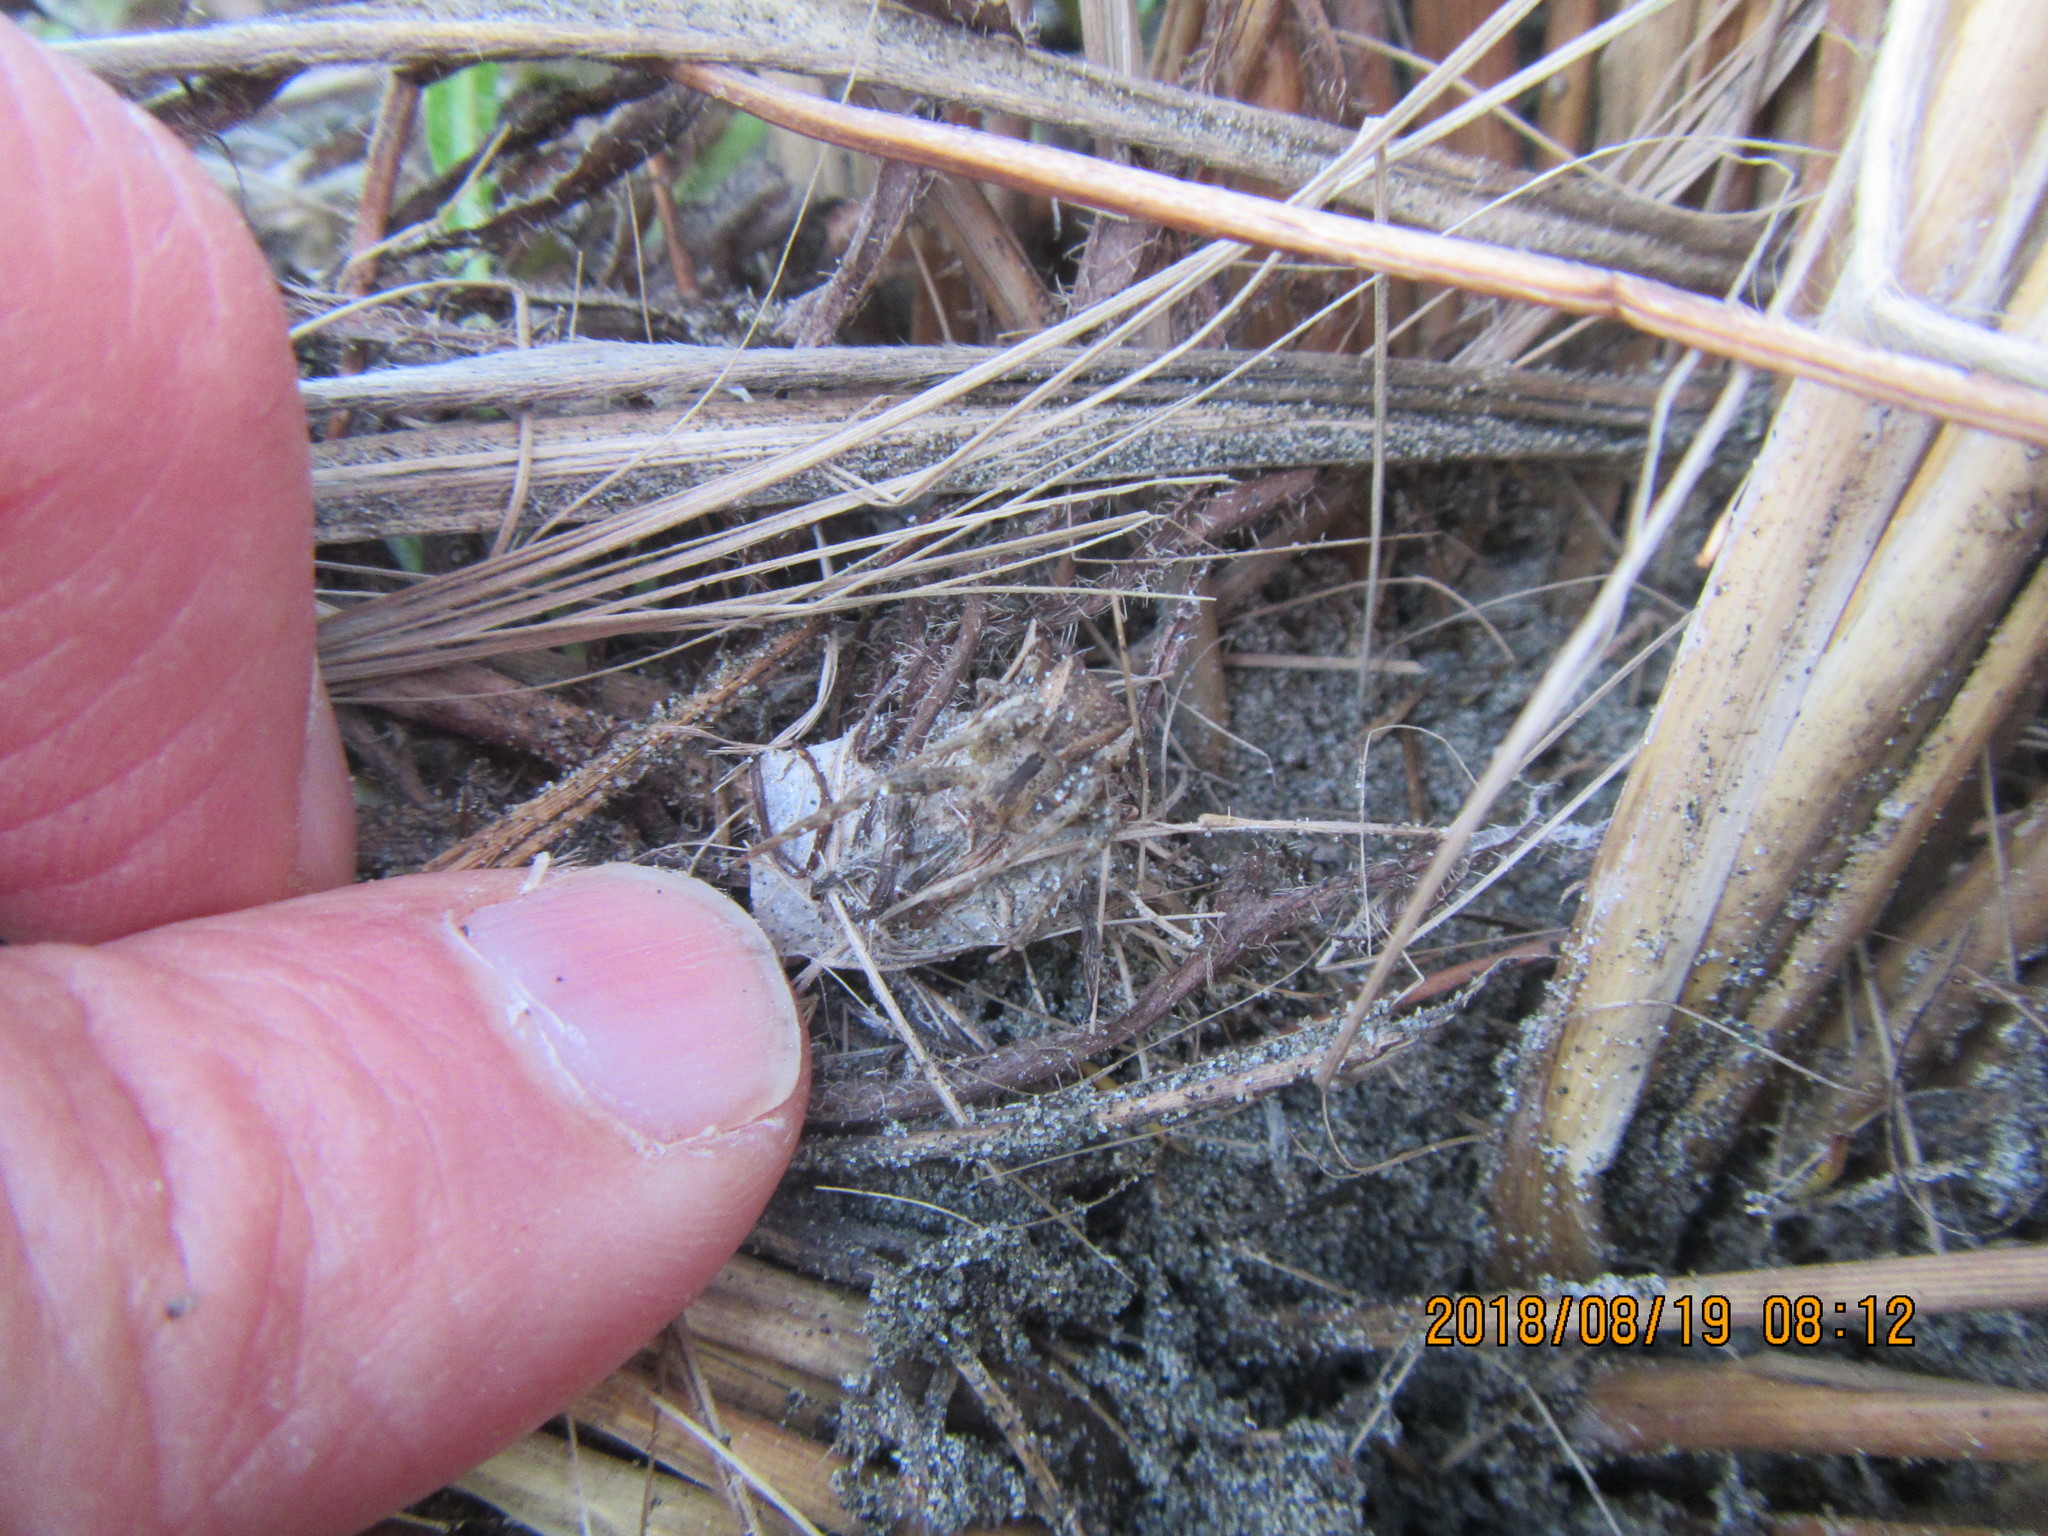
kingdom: Animalia
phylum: Arthropoda
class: Arachnida
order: Araneae
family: Thomisidae
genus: Sidymella
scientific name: Sidymella trapezia
